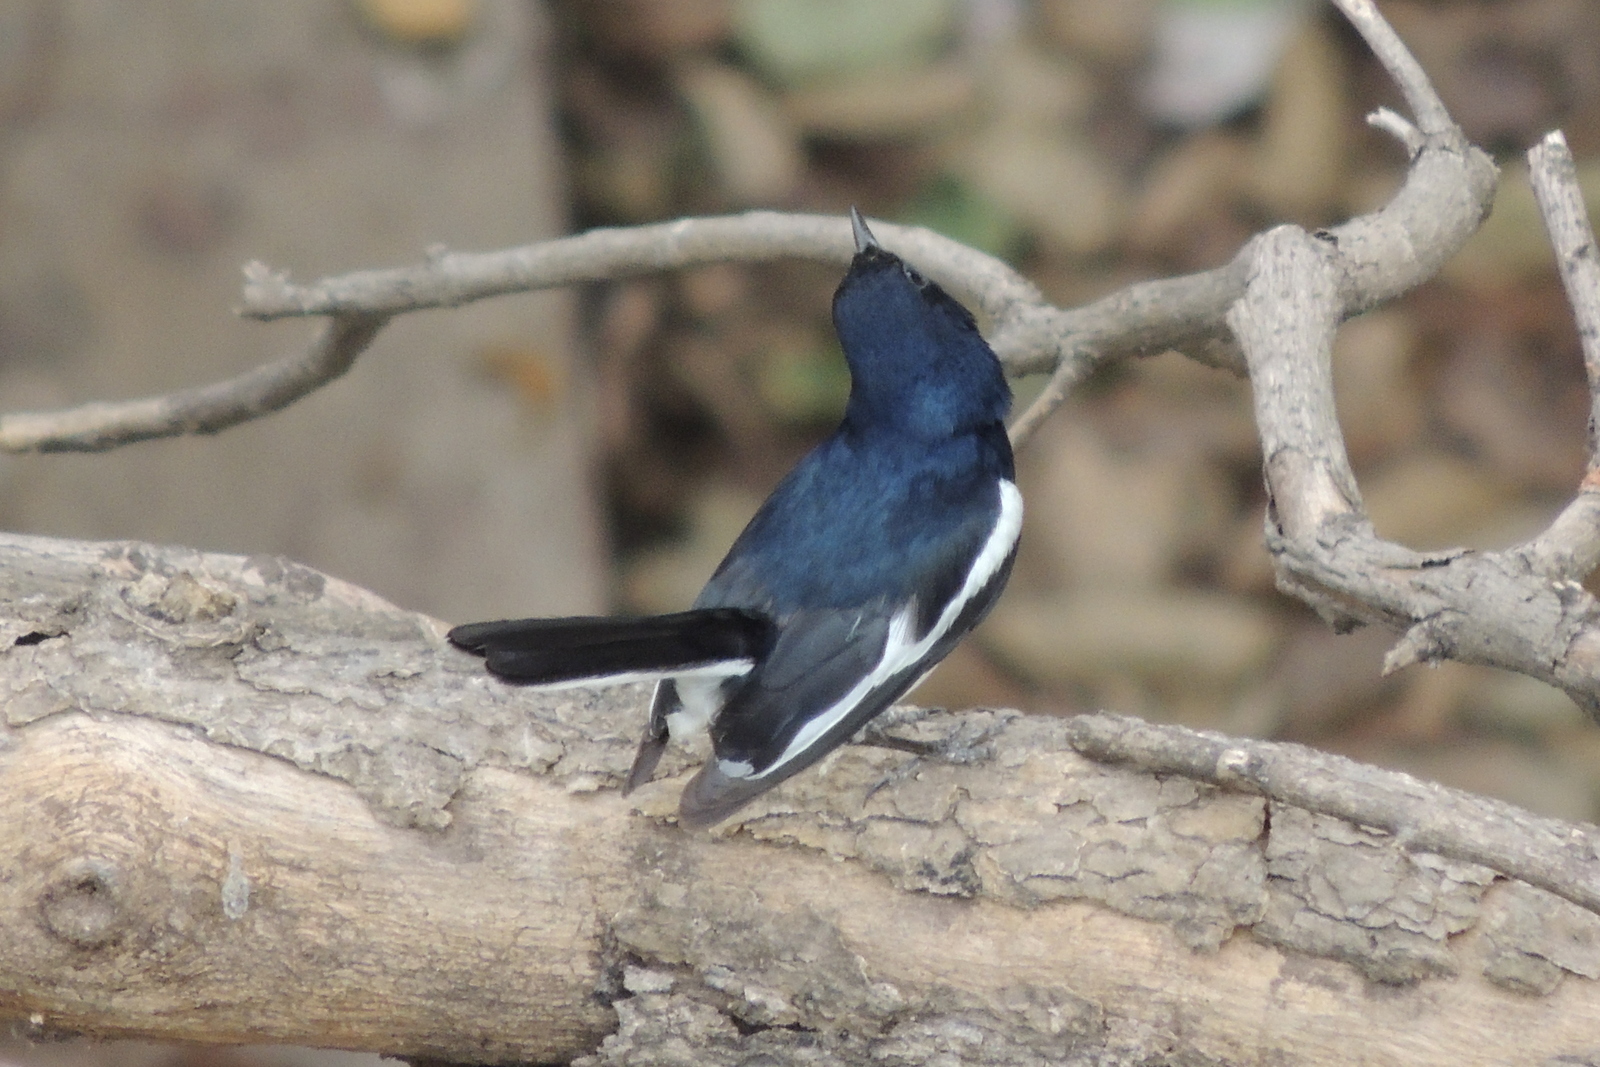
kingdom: Animalia
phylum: Chordata
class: Aves
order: Passeriformes
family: Muscicapidae
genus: Copsychus
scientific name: Copsychus saularis
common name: Oriental magpie-robin
